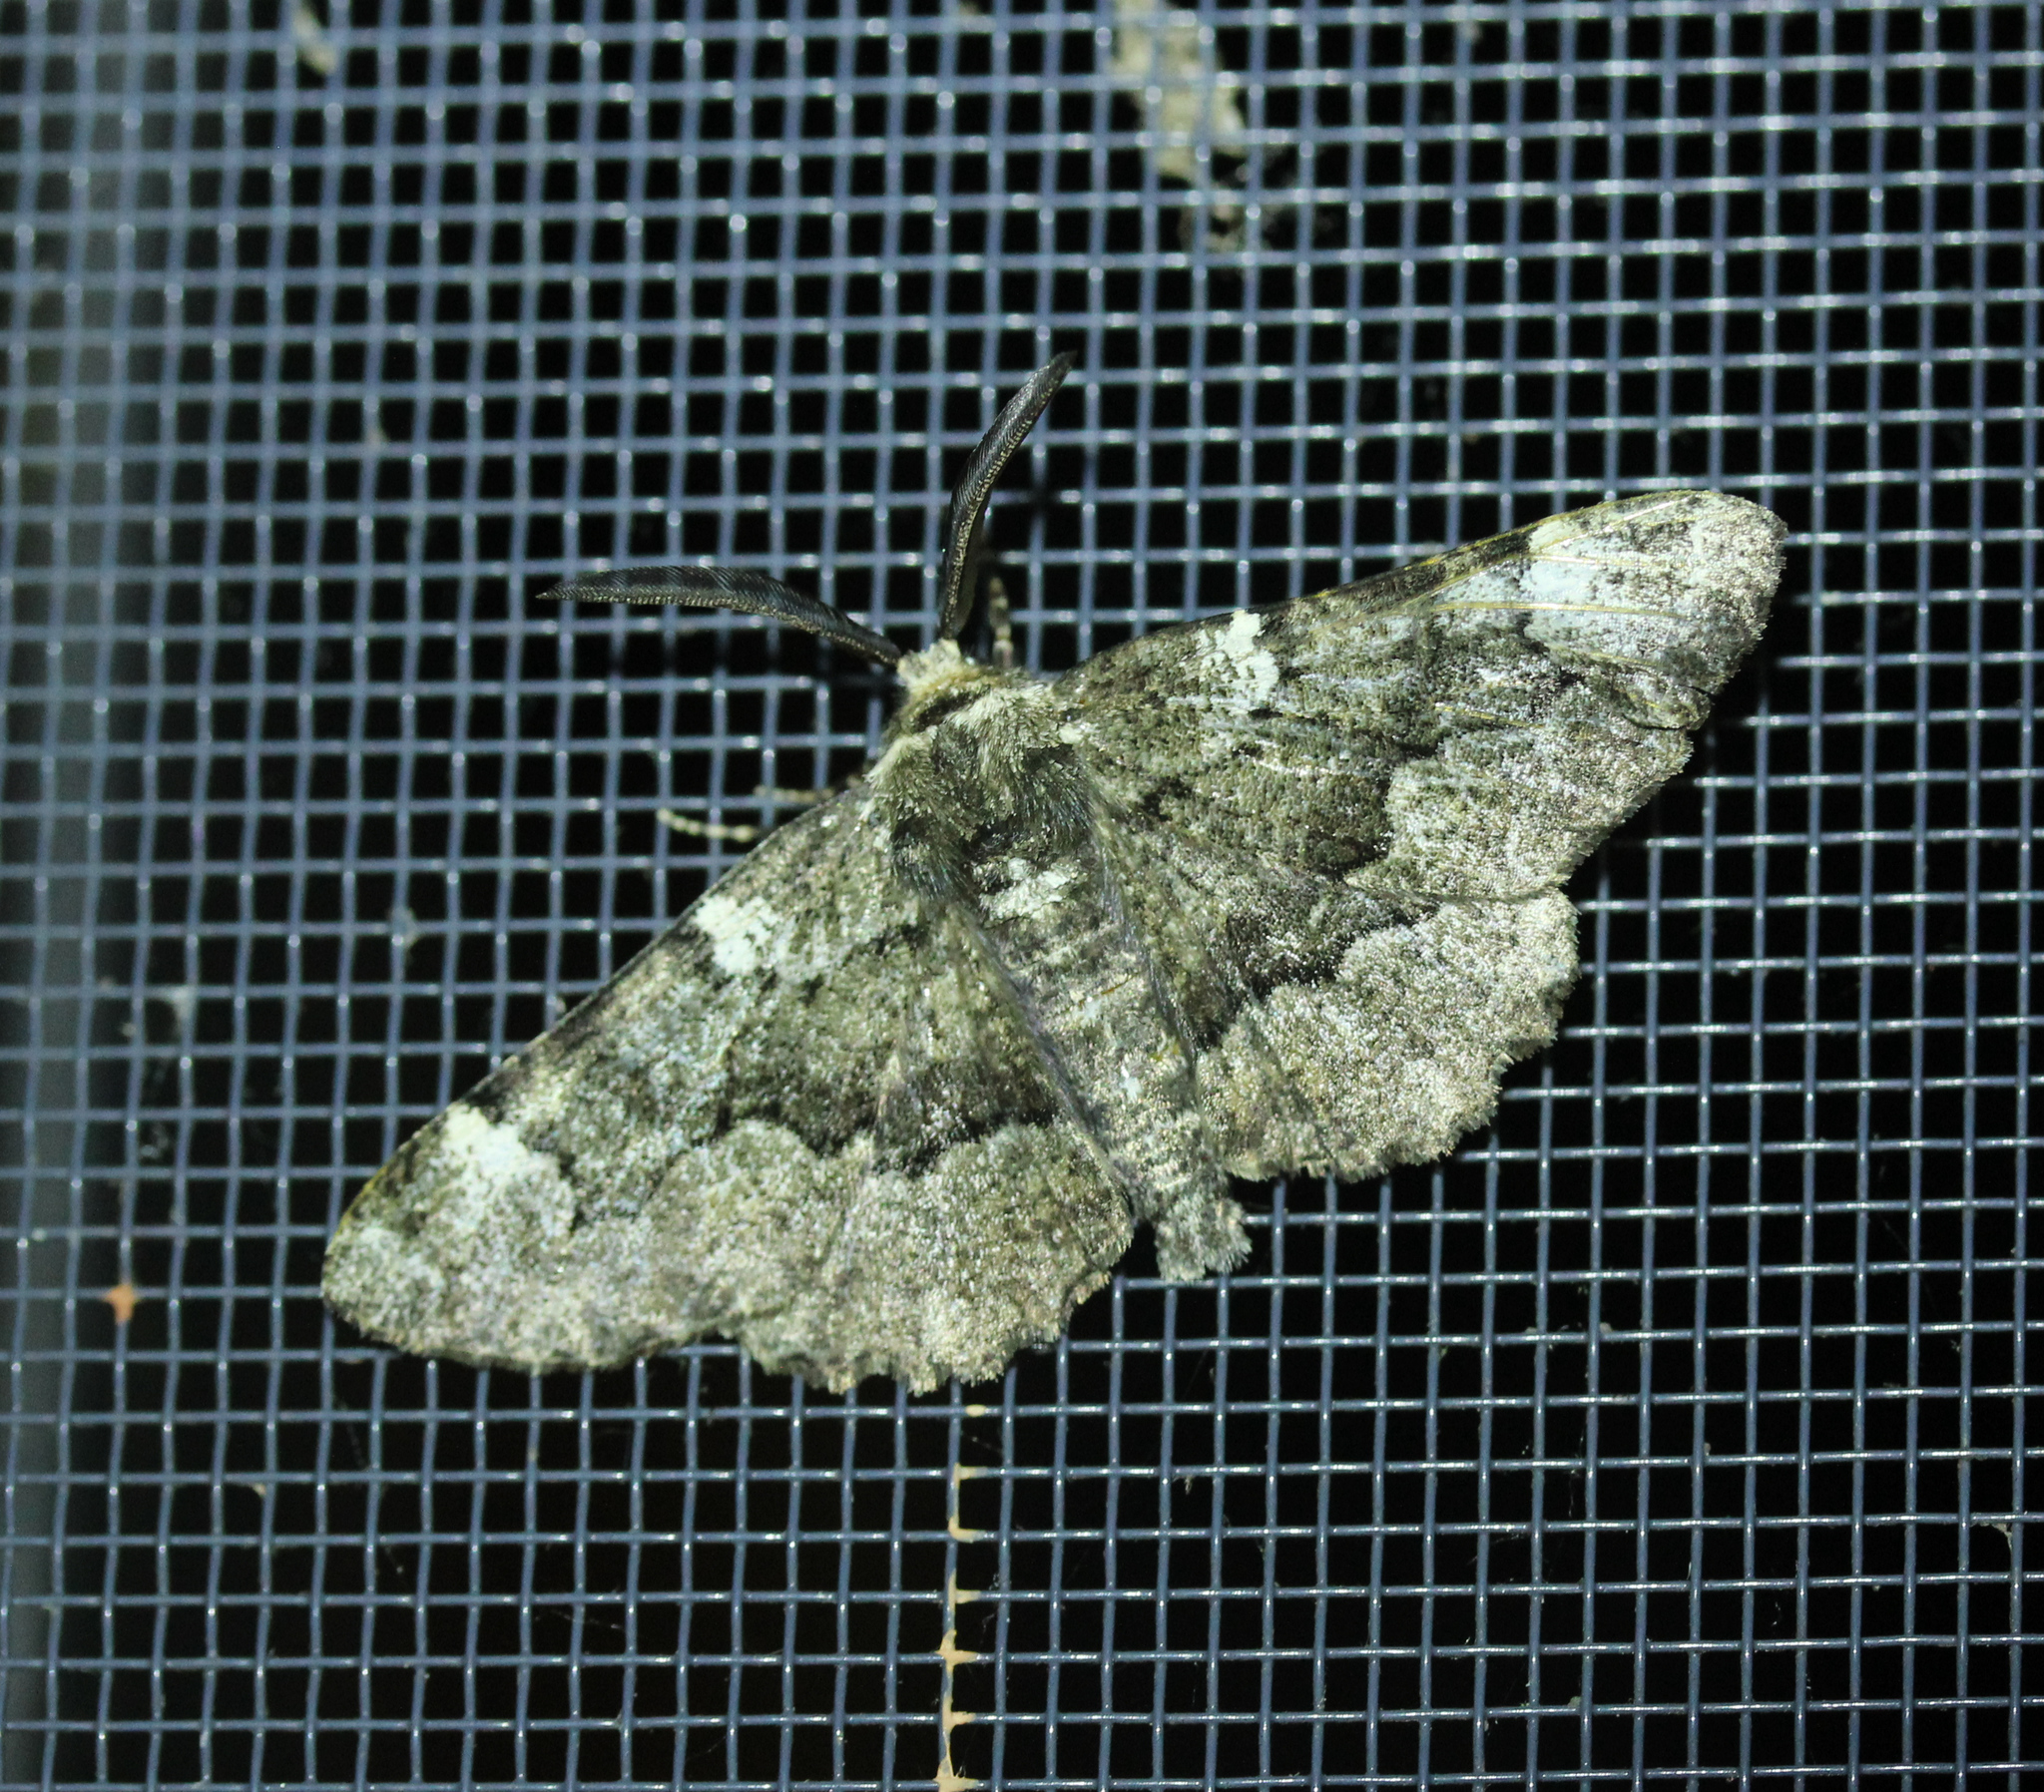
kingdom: Animalia
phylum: Arthropoda
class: Insecta
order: Lepidoptera
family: Geometridae
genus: Phaeoura
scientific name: Phaeoura quernaria
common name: Oak beauty
